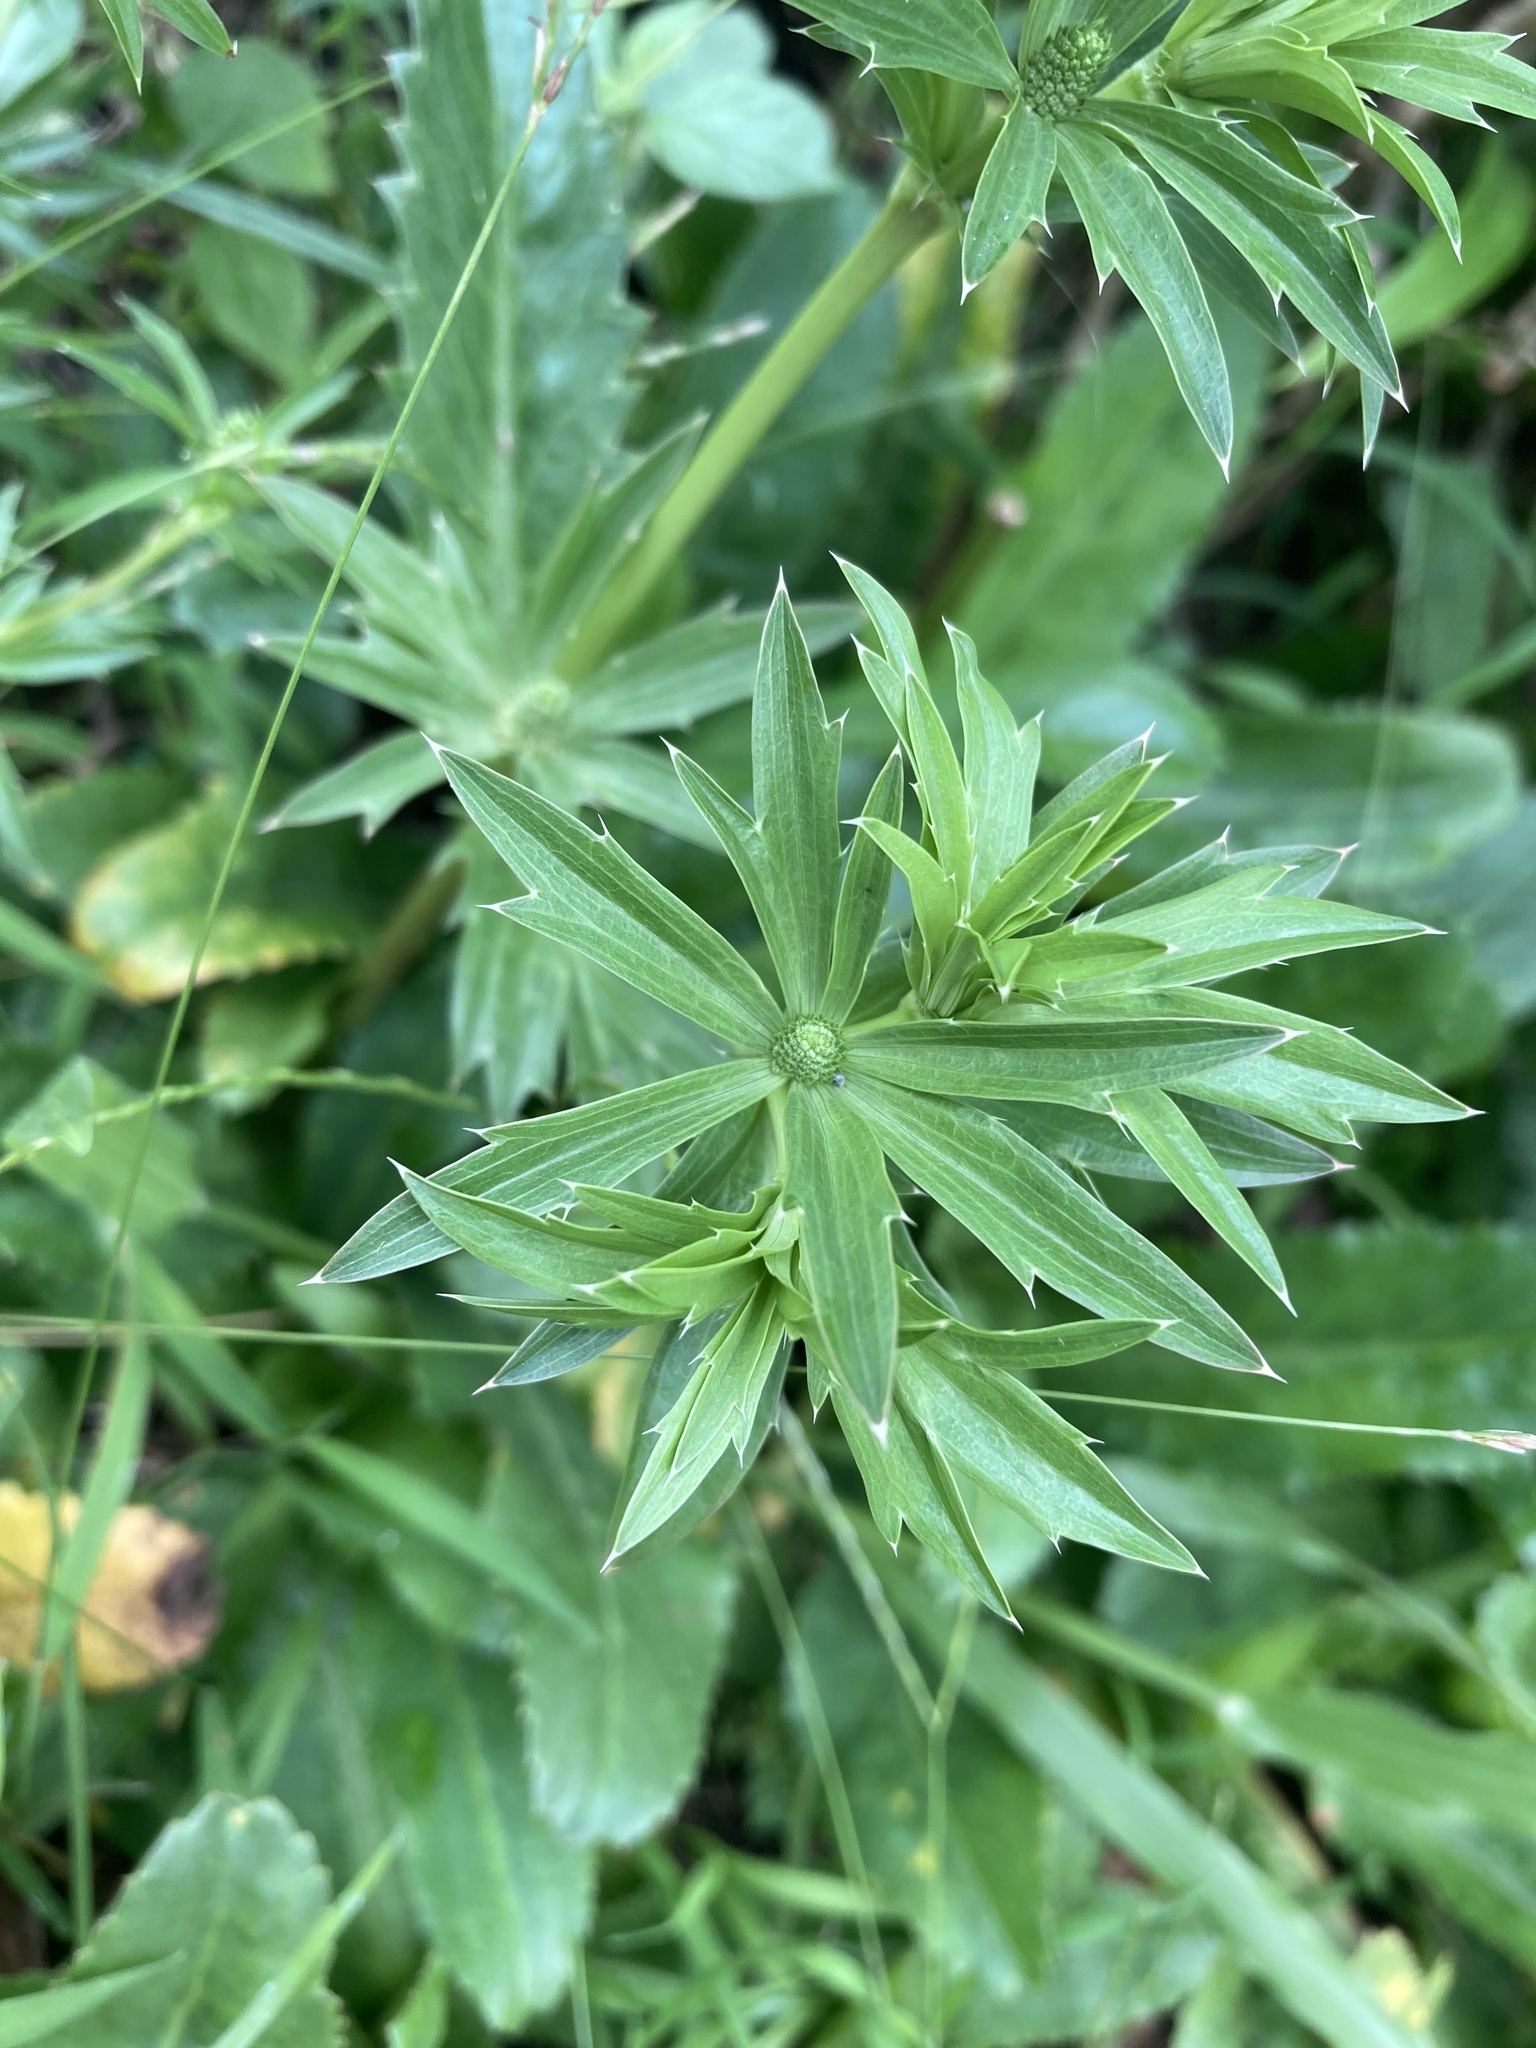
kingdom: Plantae
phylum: Tracheophyta
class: Magnoliopsida
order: Apiales
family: Apiaceae
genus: Eryngium
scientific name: Eryngium foetidum
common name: Fitweed
